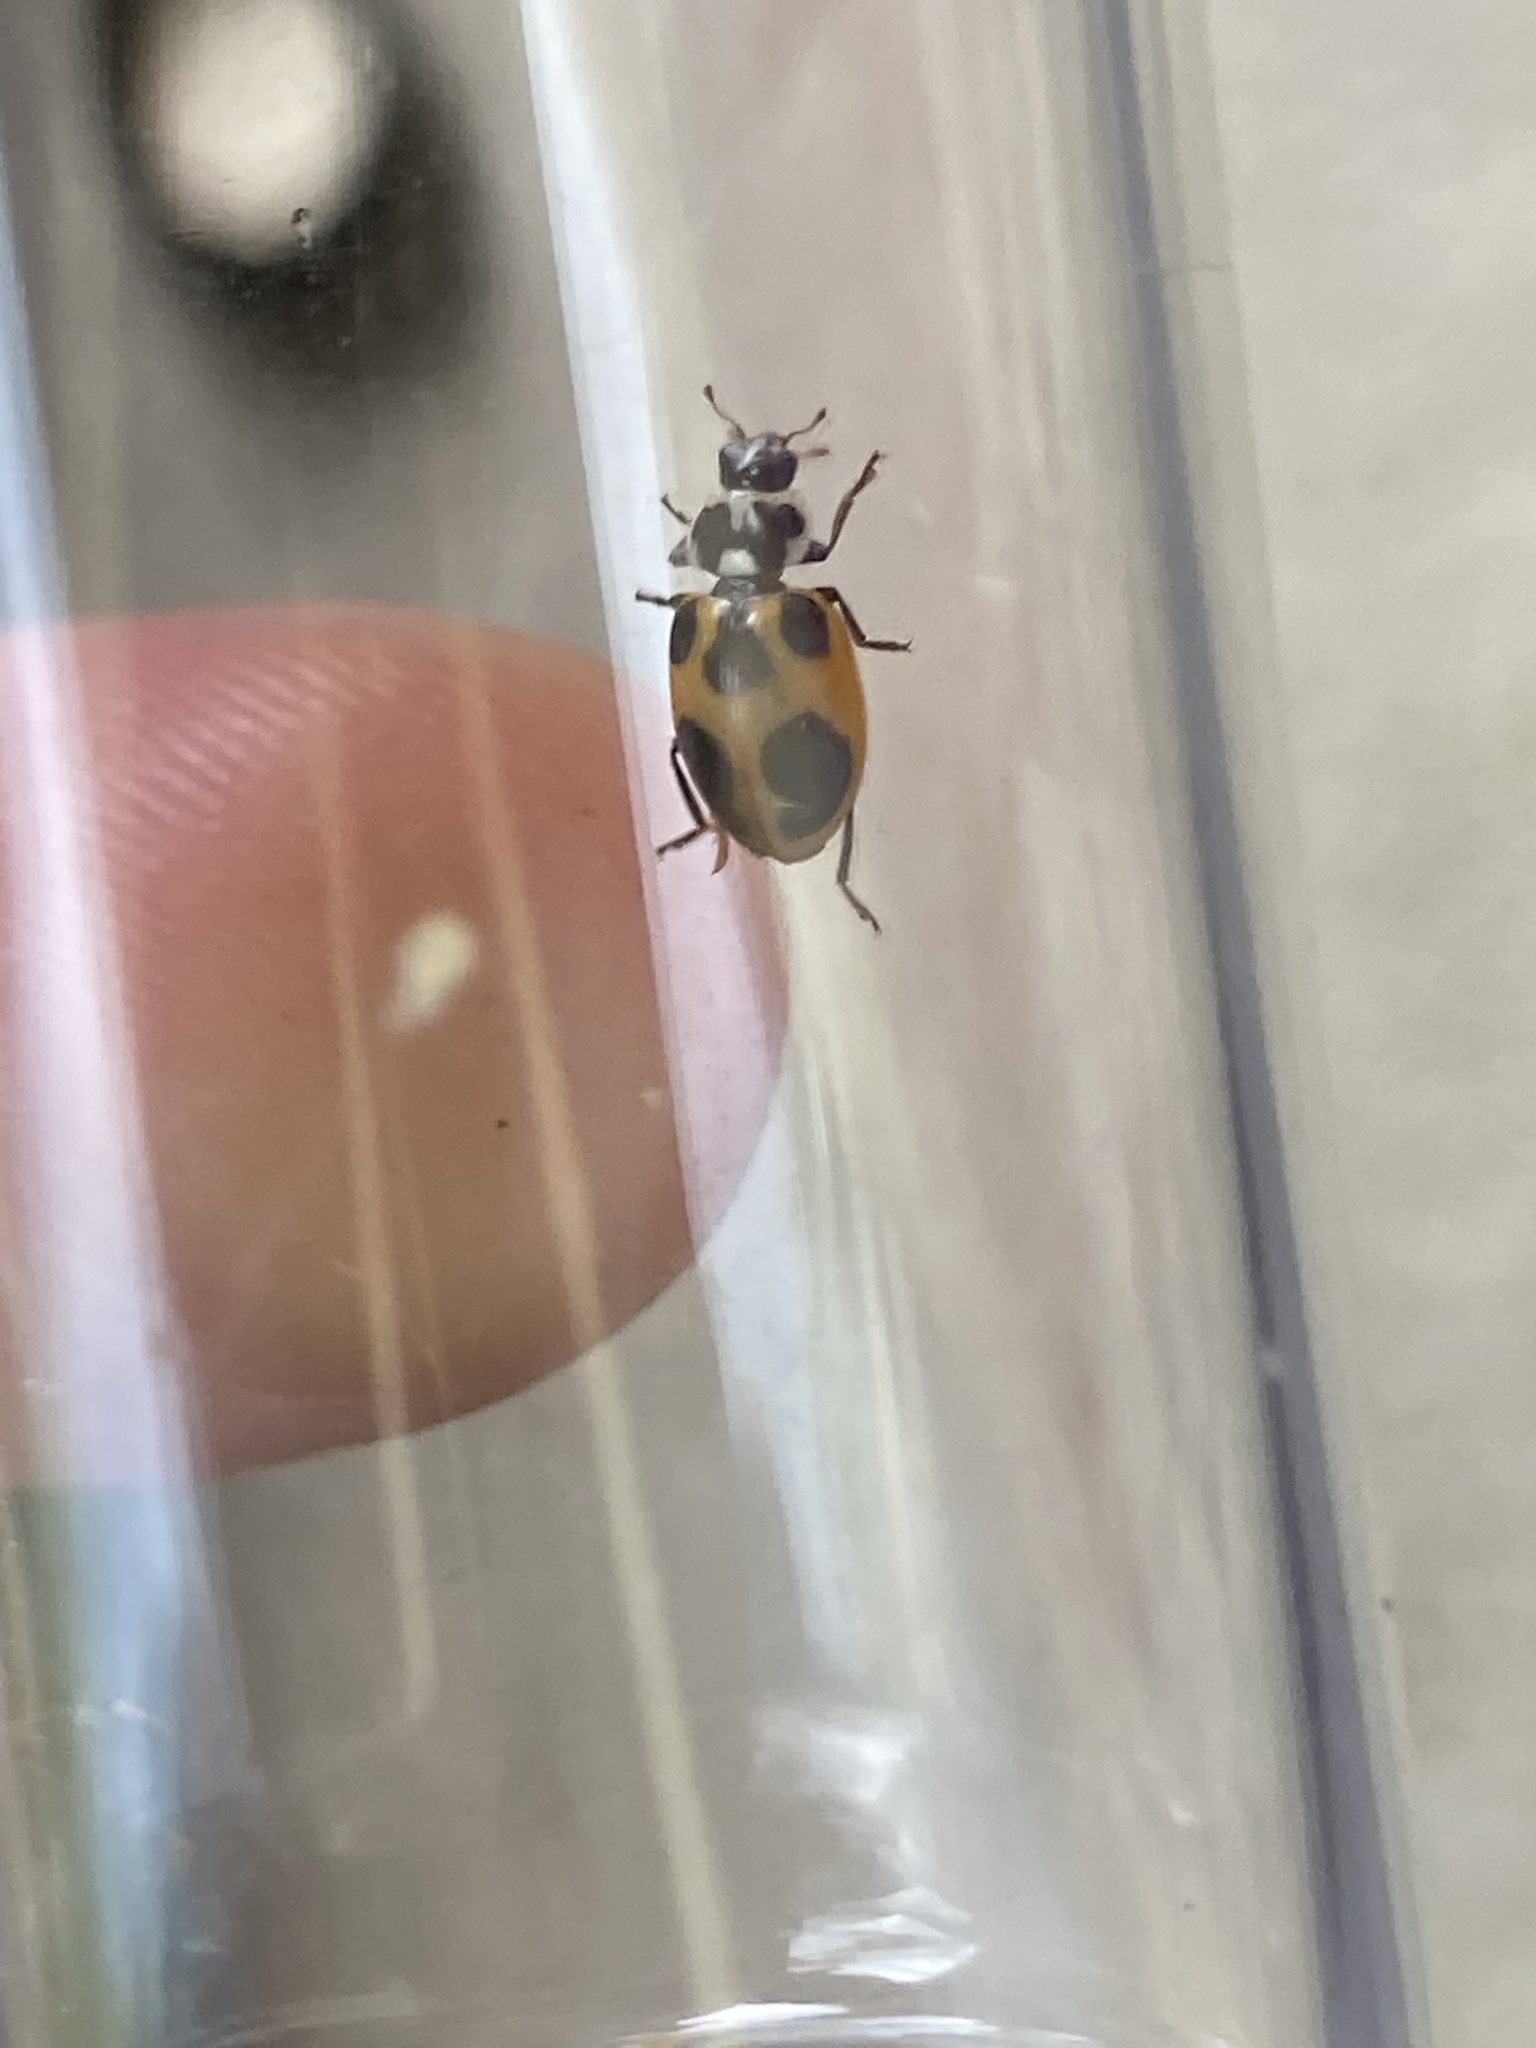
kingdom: Animalia
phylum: Arthropoda
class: Insecta
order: Coleoptera
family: Coccinellidae
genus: Hippodamia
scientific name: Hippodamia parenthesis
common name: Parenthesis lady beetle
